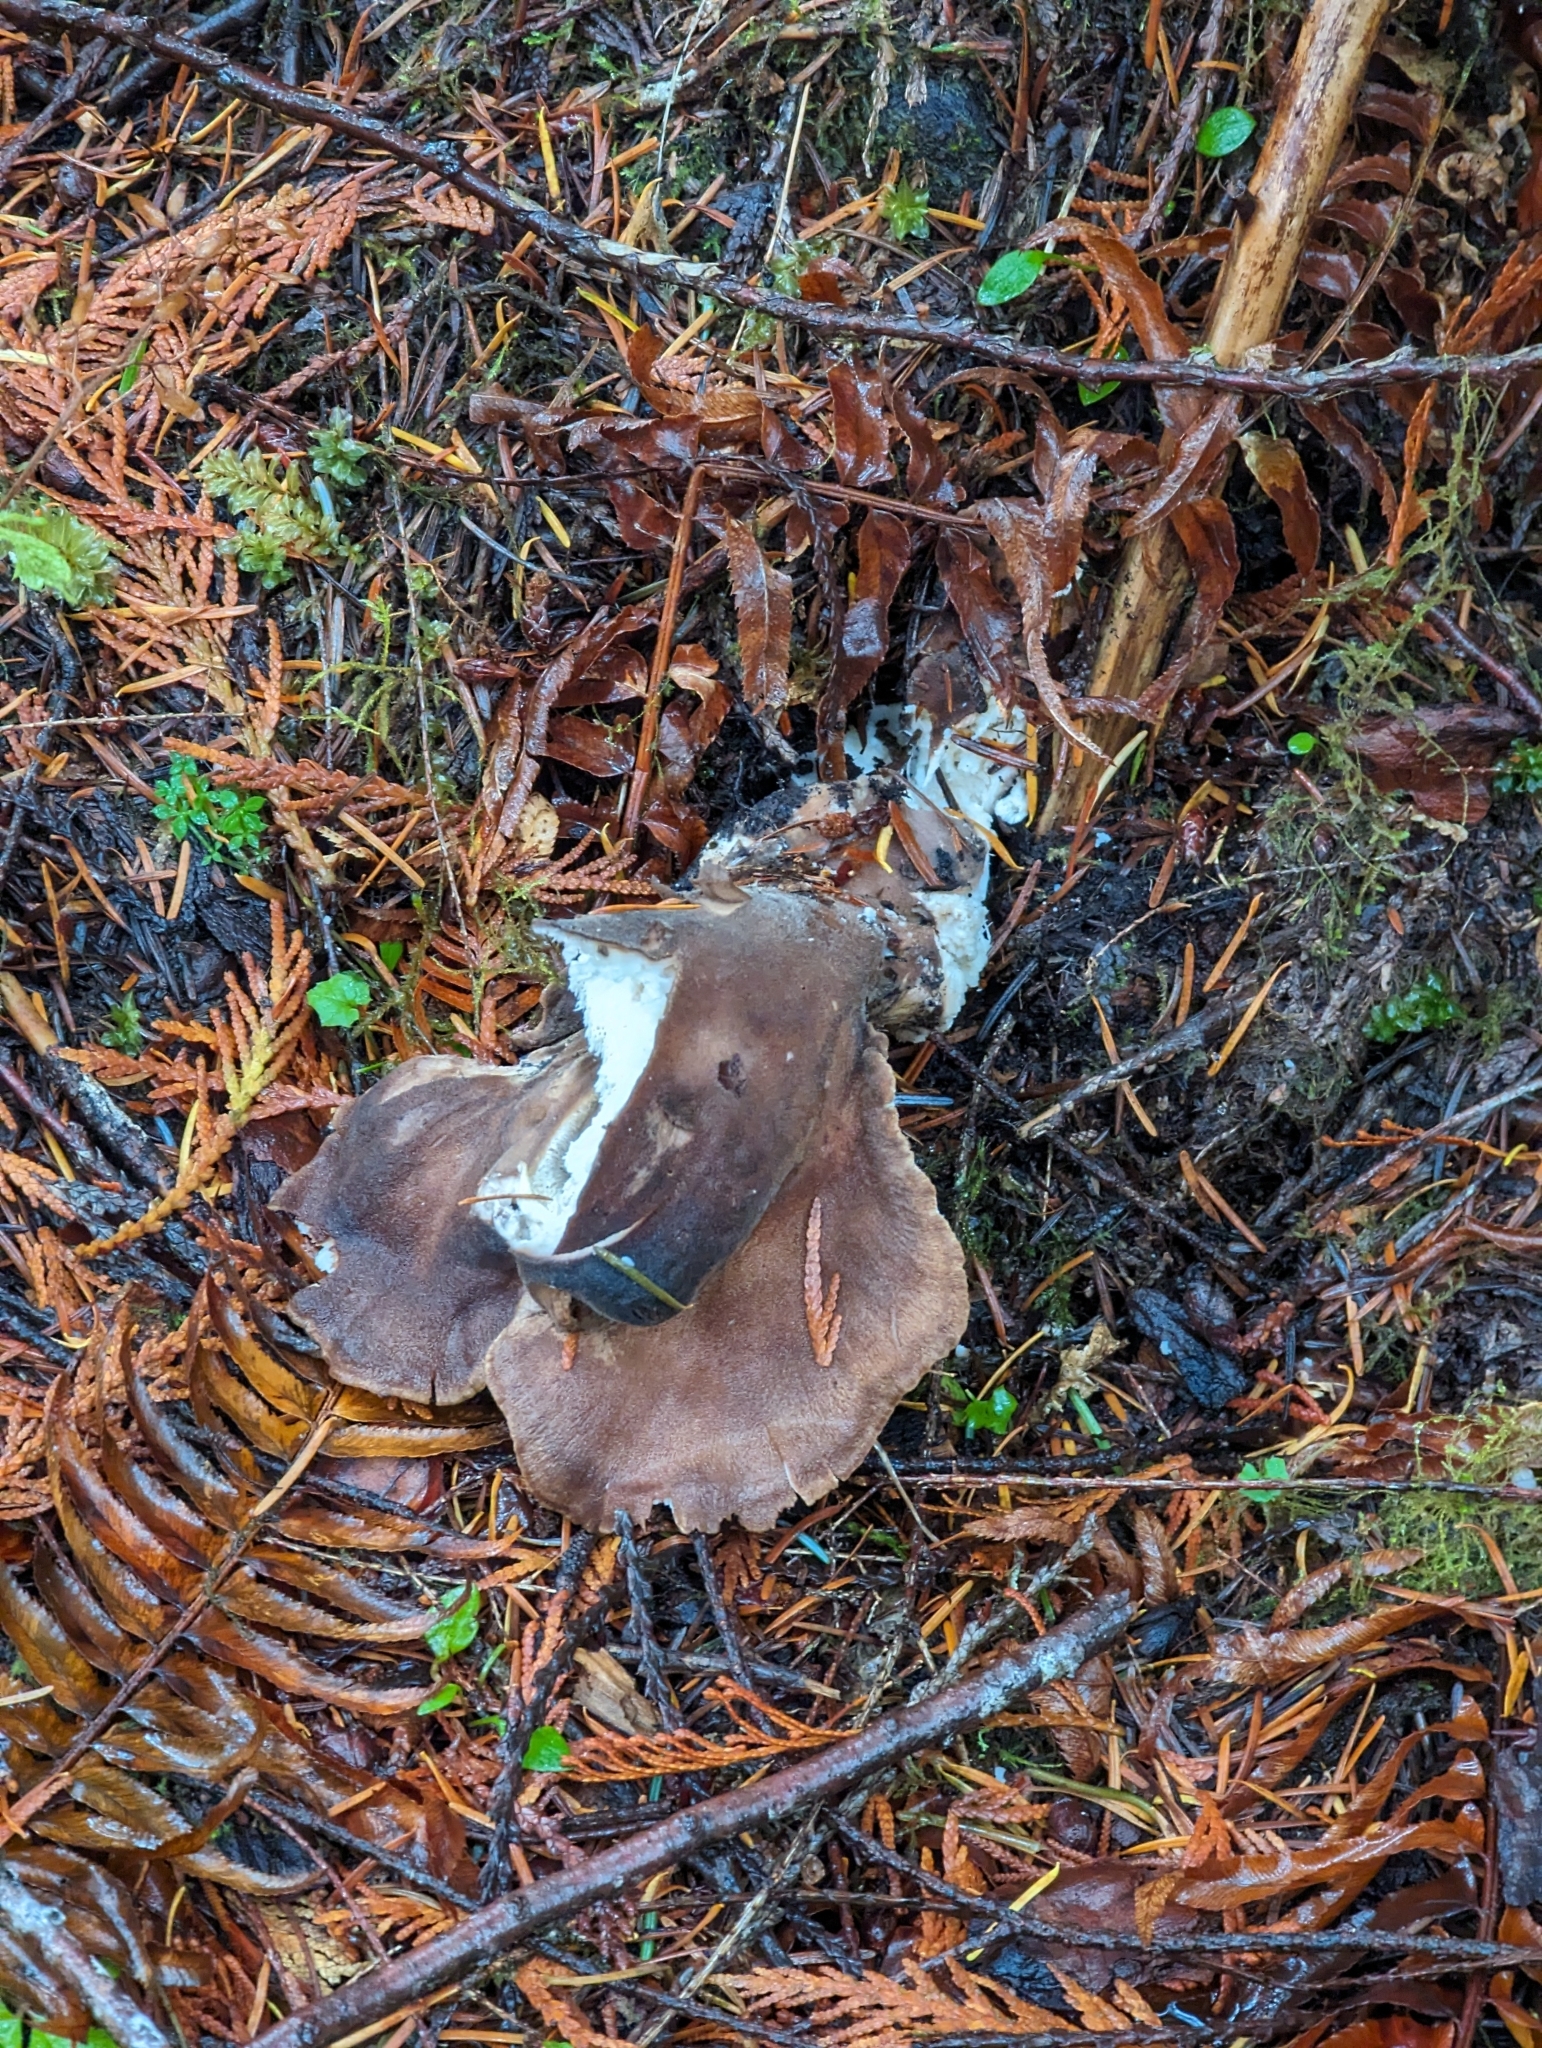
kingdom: Fungi
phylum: Basidiomycota
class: Agaricomycetes
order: Polyporales
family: Dacryobolaceae
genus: Jahnoporus
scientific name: Jahnoporus hirtus
